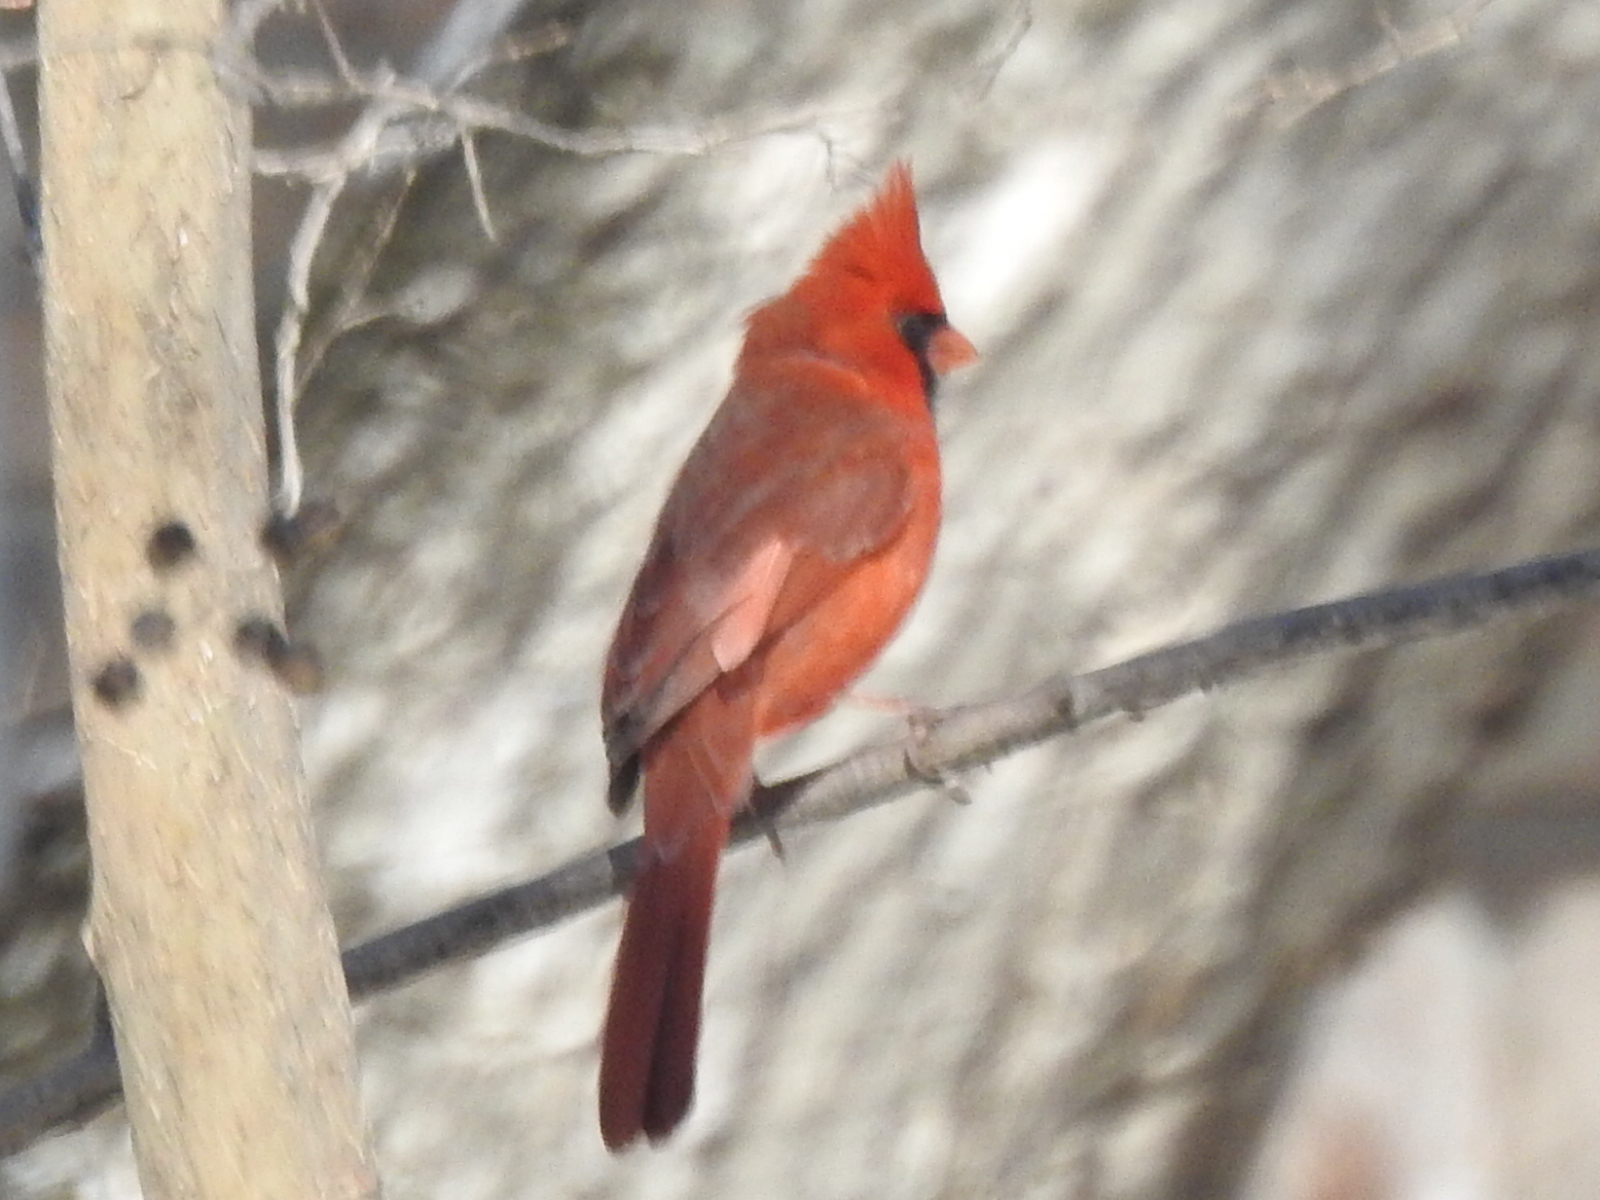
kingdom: Animalia
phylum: Chordata
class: Aves
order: Passeriformes
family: Cardinalidae
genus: Cardinalis
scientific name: Cardinalis cardinalis
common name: Northern cardinal
